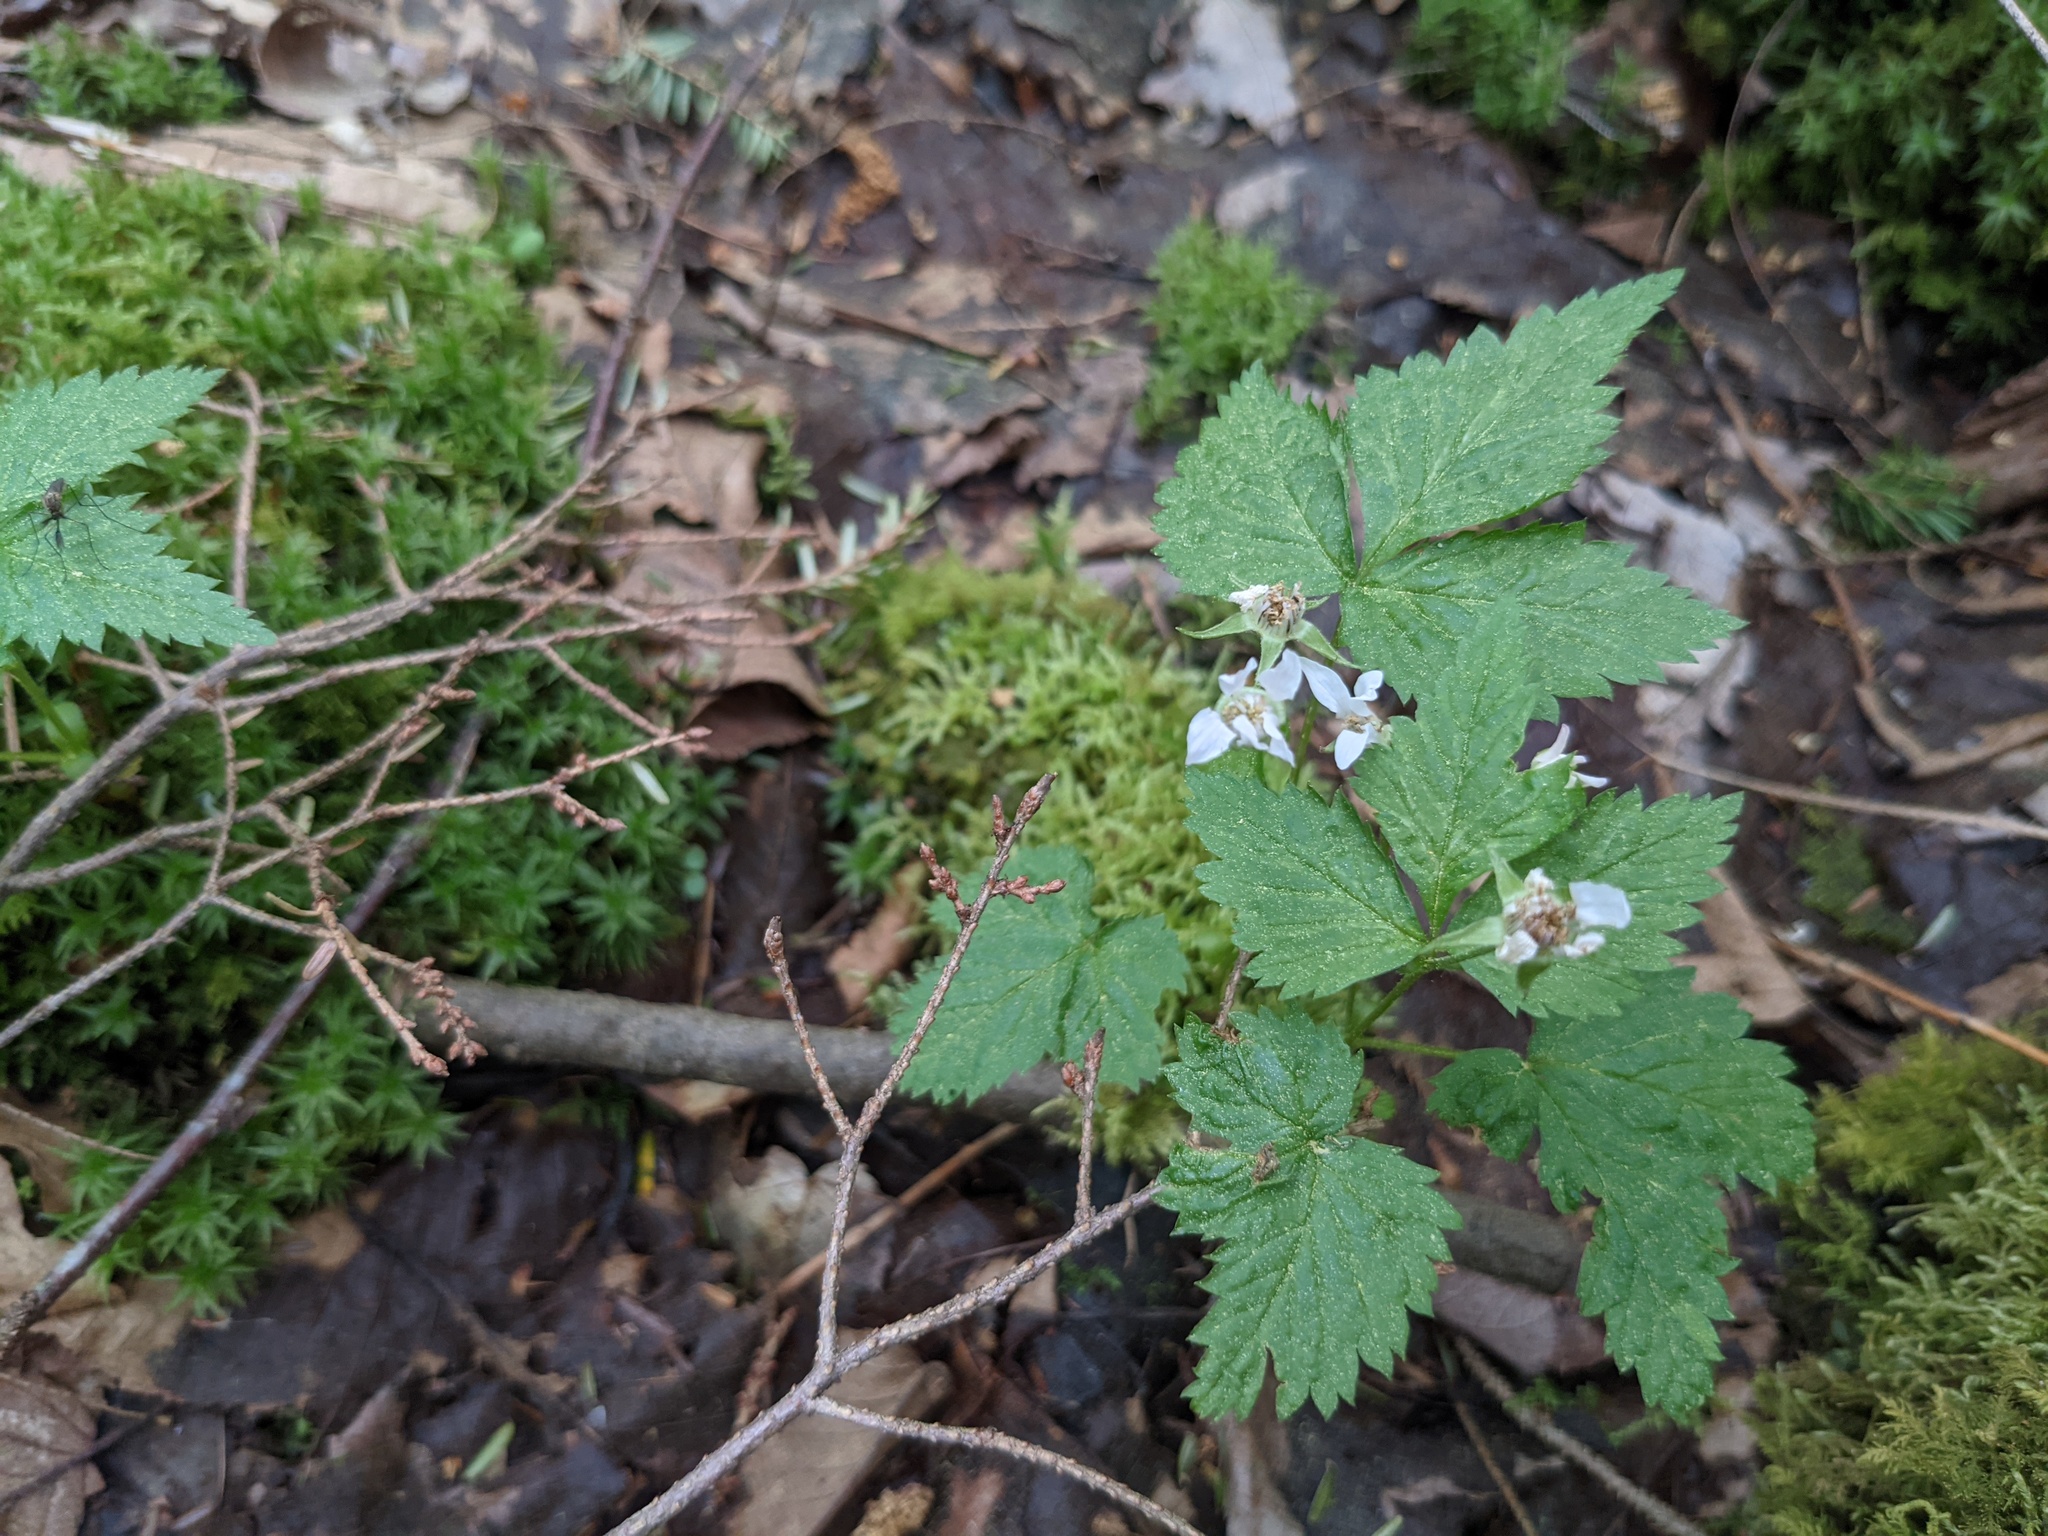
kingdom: Plantae
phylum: Tracheophyta
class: Magnoliopsida
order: Rosales
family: Rosaceae
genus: Rubus
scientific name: Rubus pubescens
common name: Dwarf raspberry
